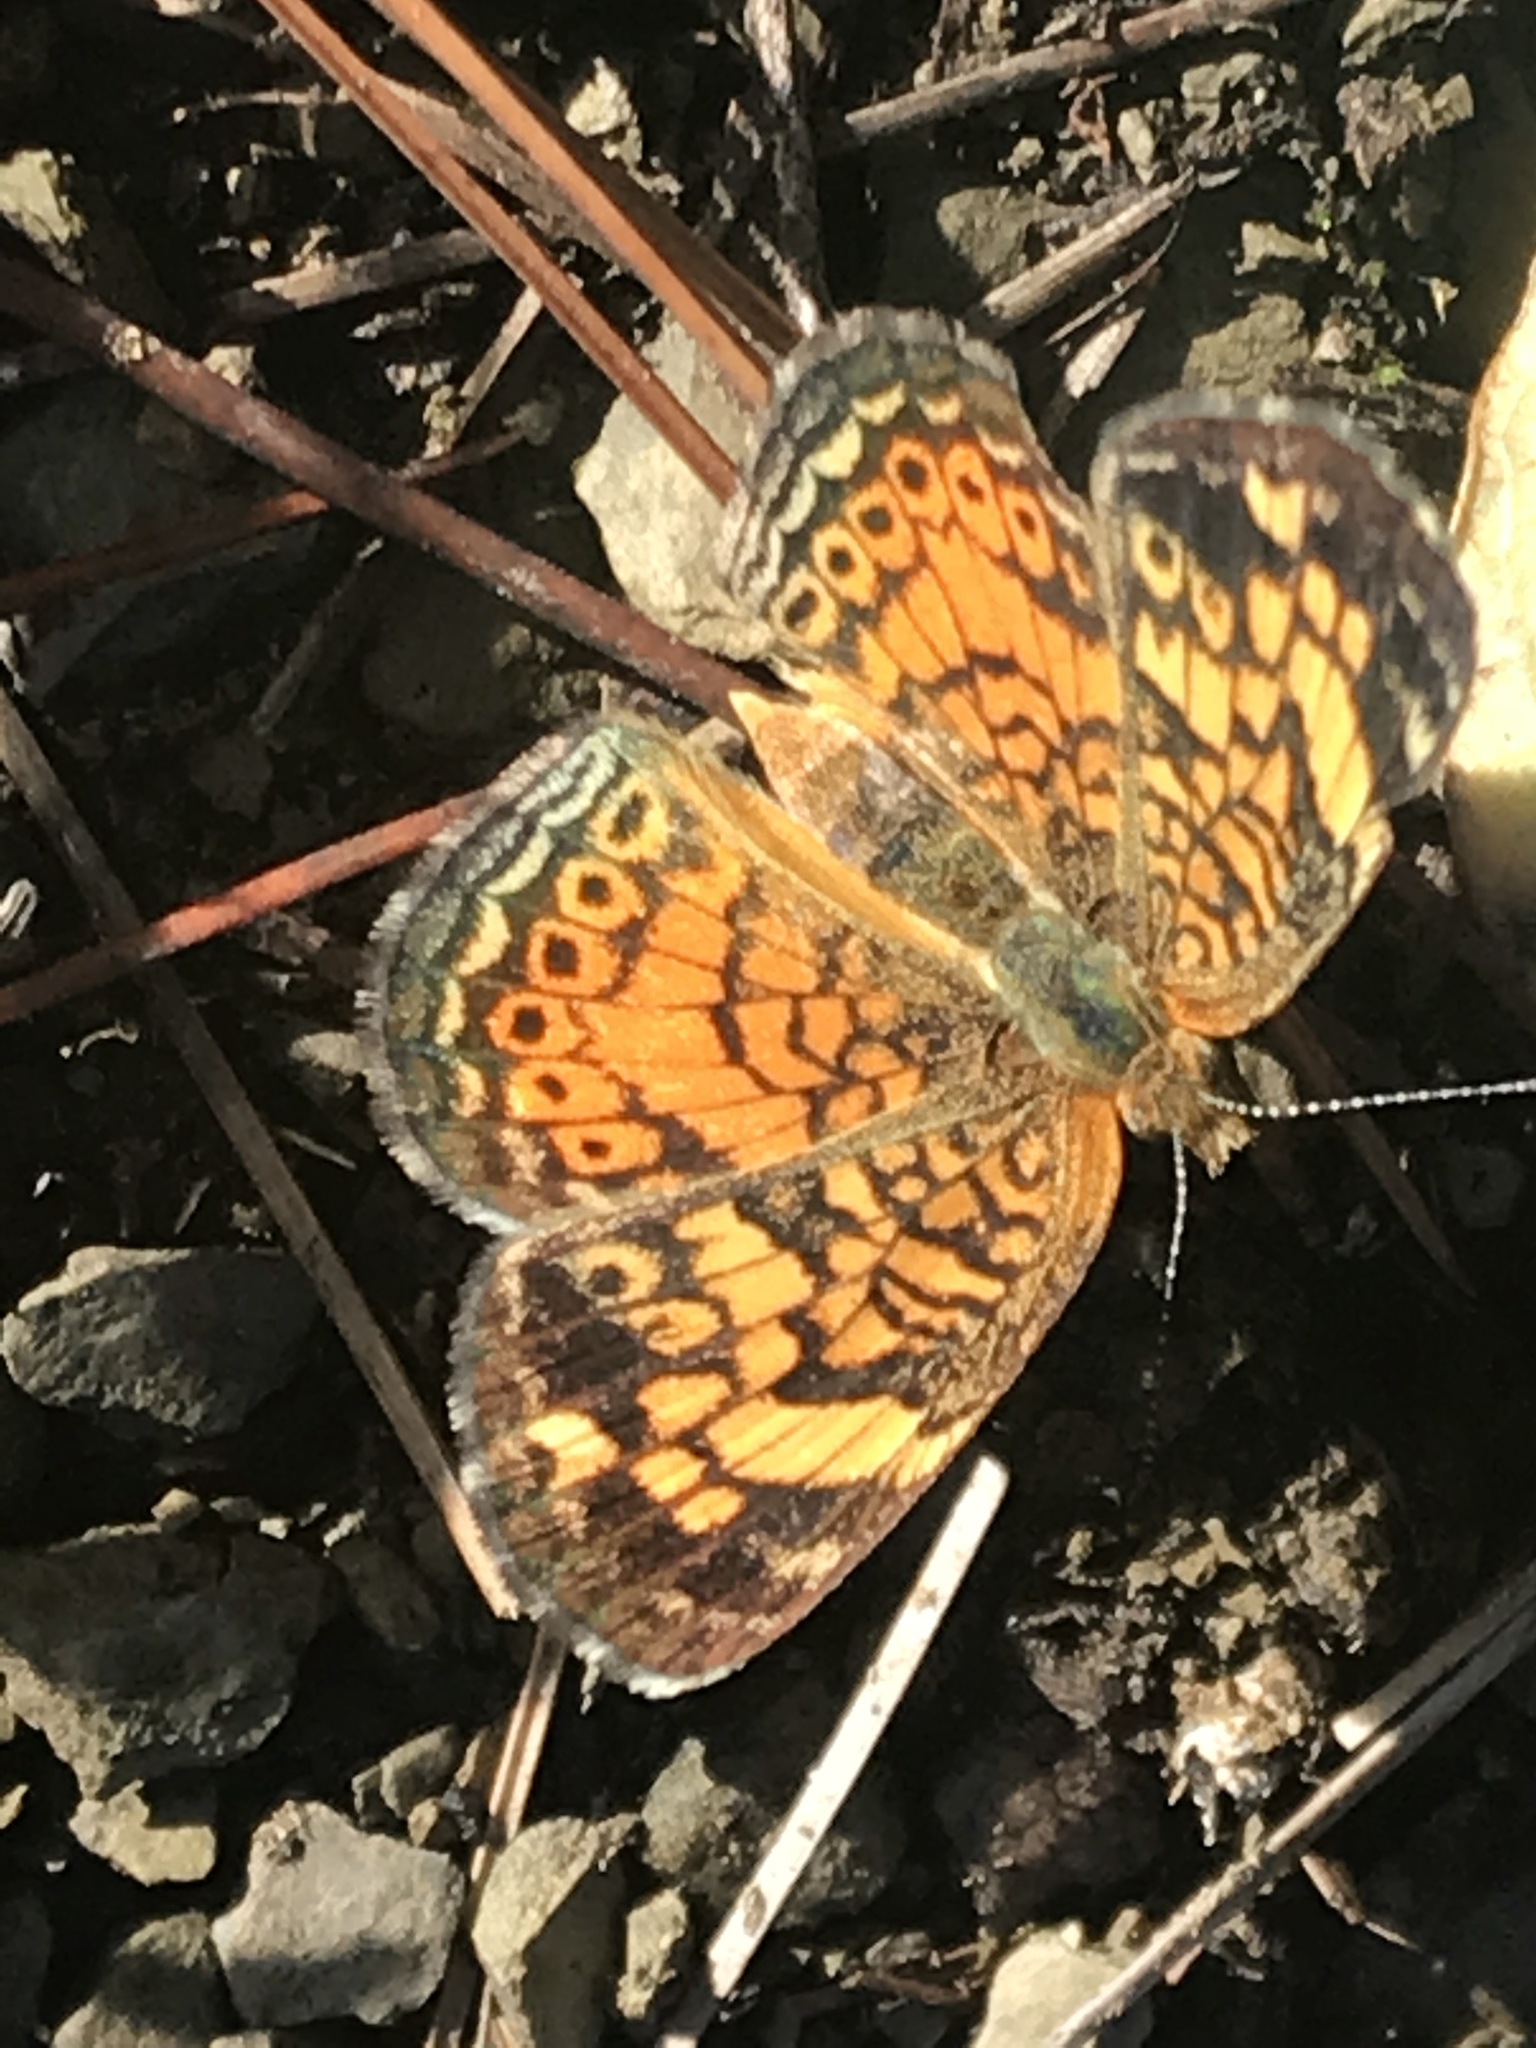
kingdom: Animalia
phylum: Arthropoda
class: Insecta
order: Lepidoptera
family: Nymphalidae
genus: Phyciodes
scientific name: Phyciodes tharos
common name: Pearl crescent
